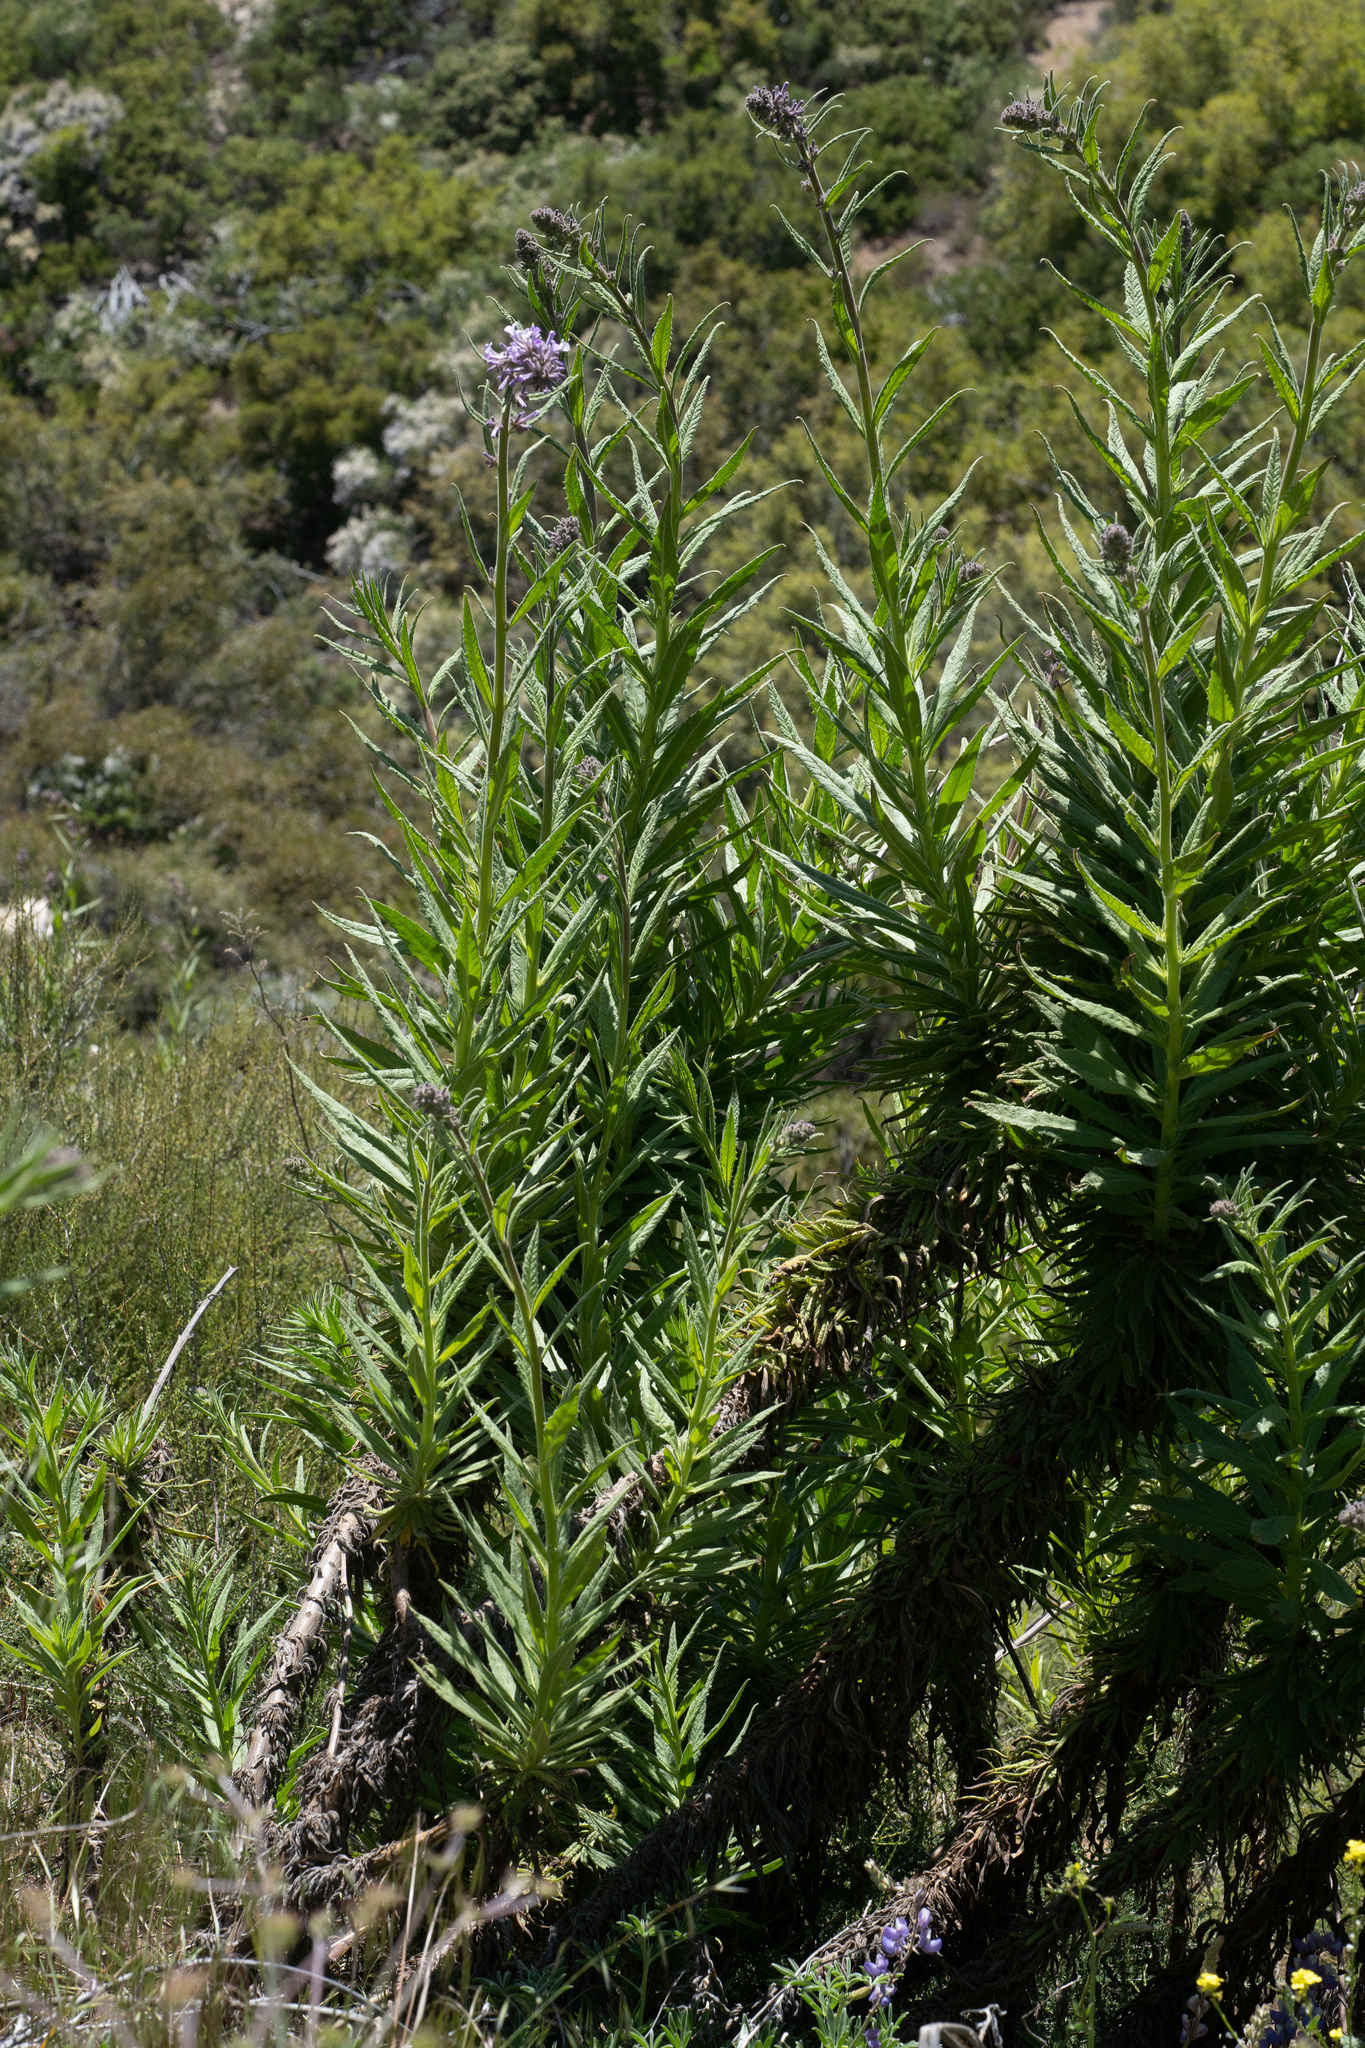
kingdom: Plantae
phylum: Tracheophyta
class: Magnoliopsida
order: Boraginales
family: Namaceae
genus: Turricula
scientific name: Turricula parryi
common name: Poodle-dog-bush
